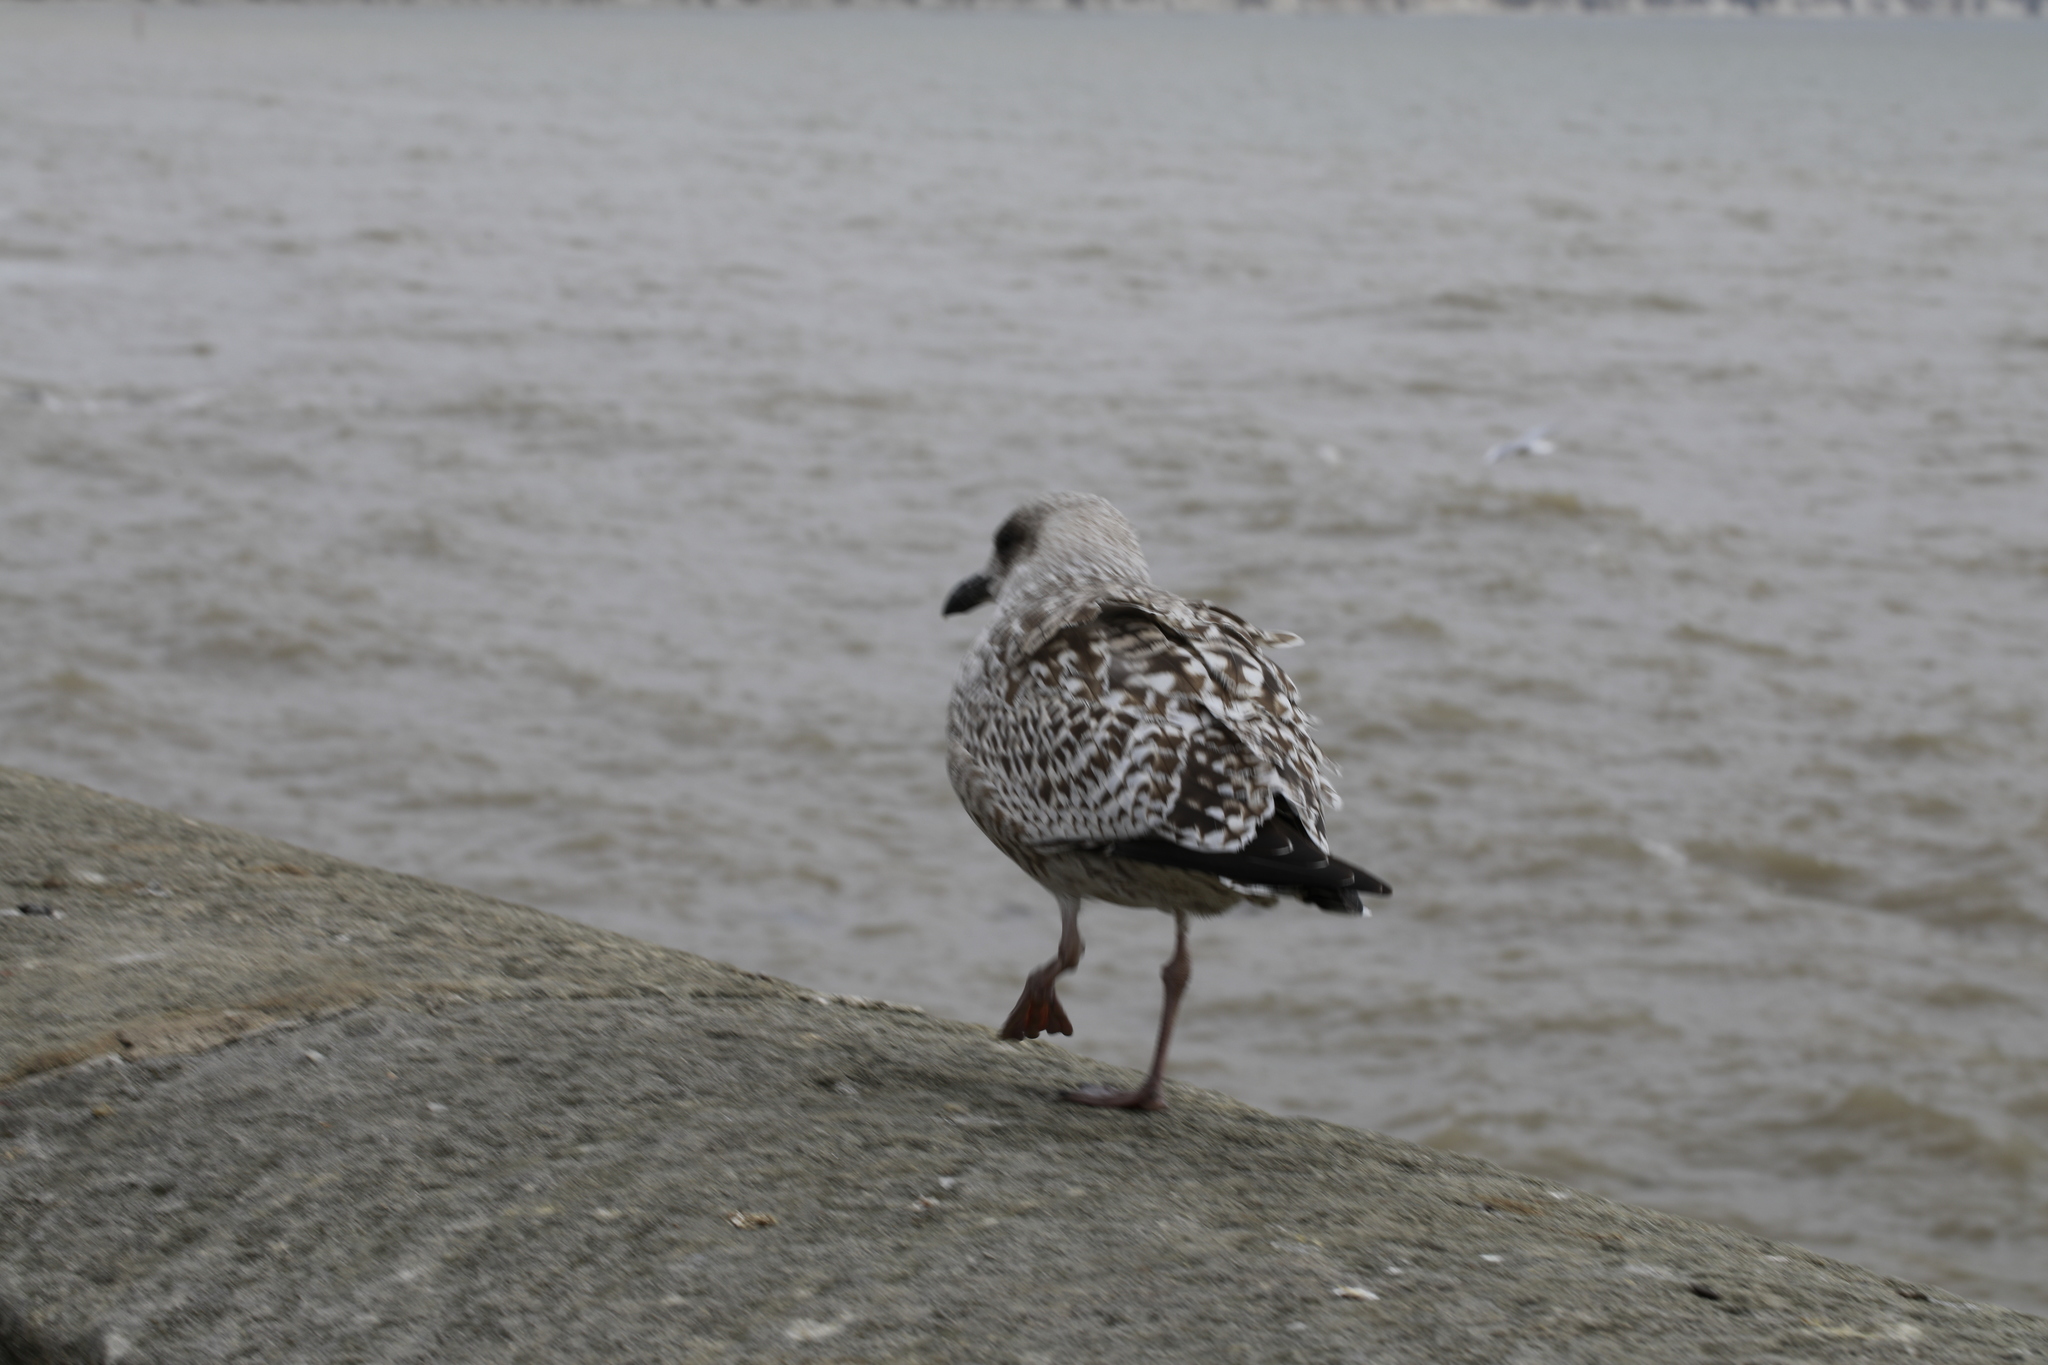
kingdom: Animalia
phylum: Chordata
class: Aves
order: Charadriiformes
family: Laridae
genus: Larus
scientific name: Larus argentatus
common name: Herring gull
